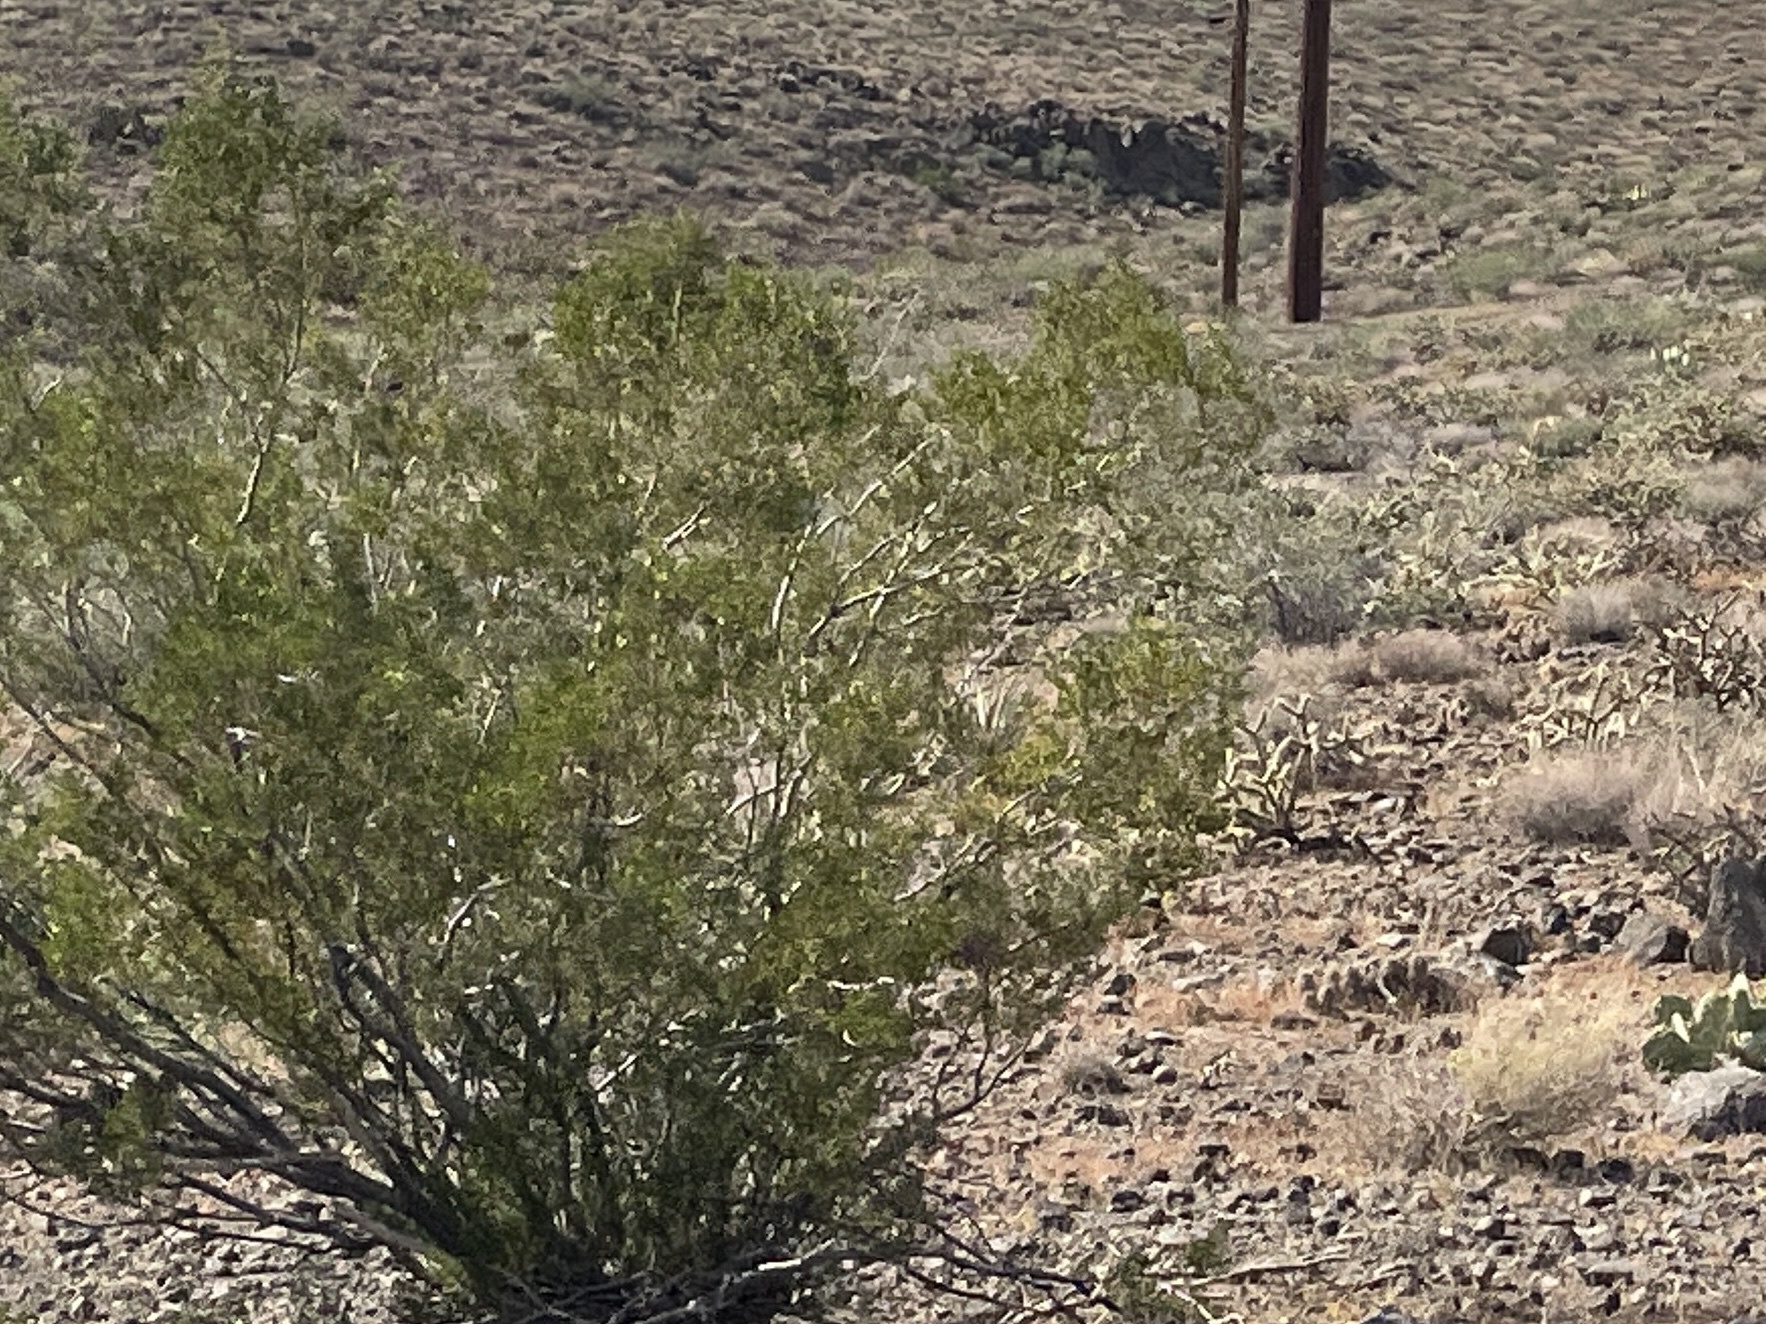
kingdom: Plantae
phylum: Tracheophyta
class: Magnoliopsida
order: Zygophyllales
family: Zygophyllaceae
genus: Larrea
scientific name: Larrea tridentata
